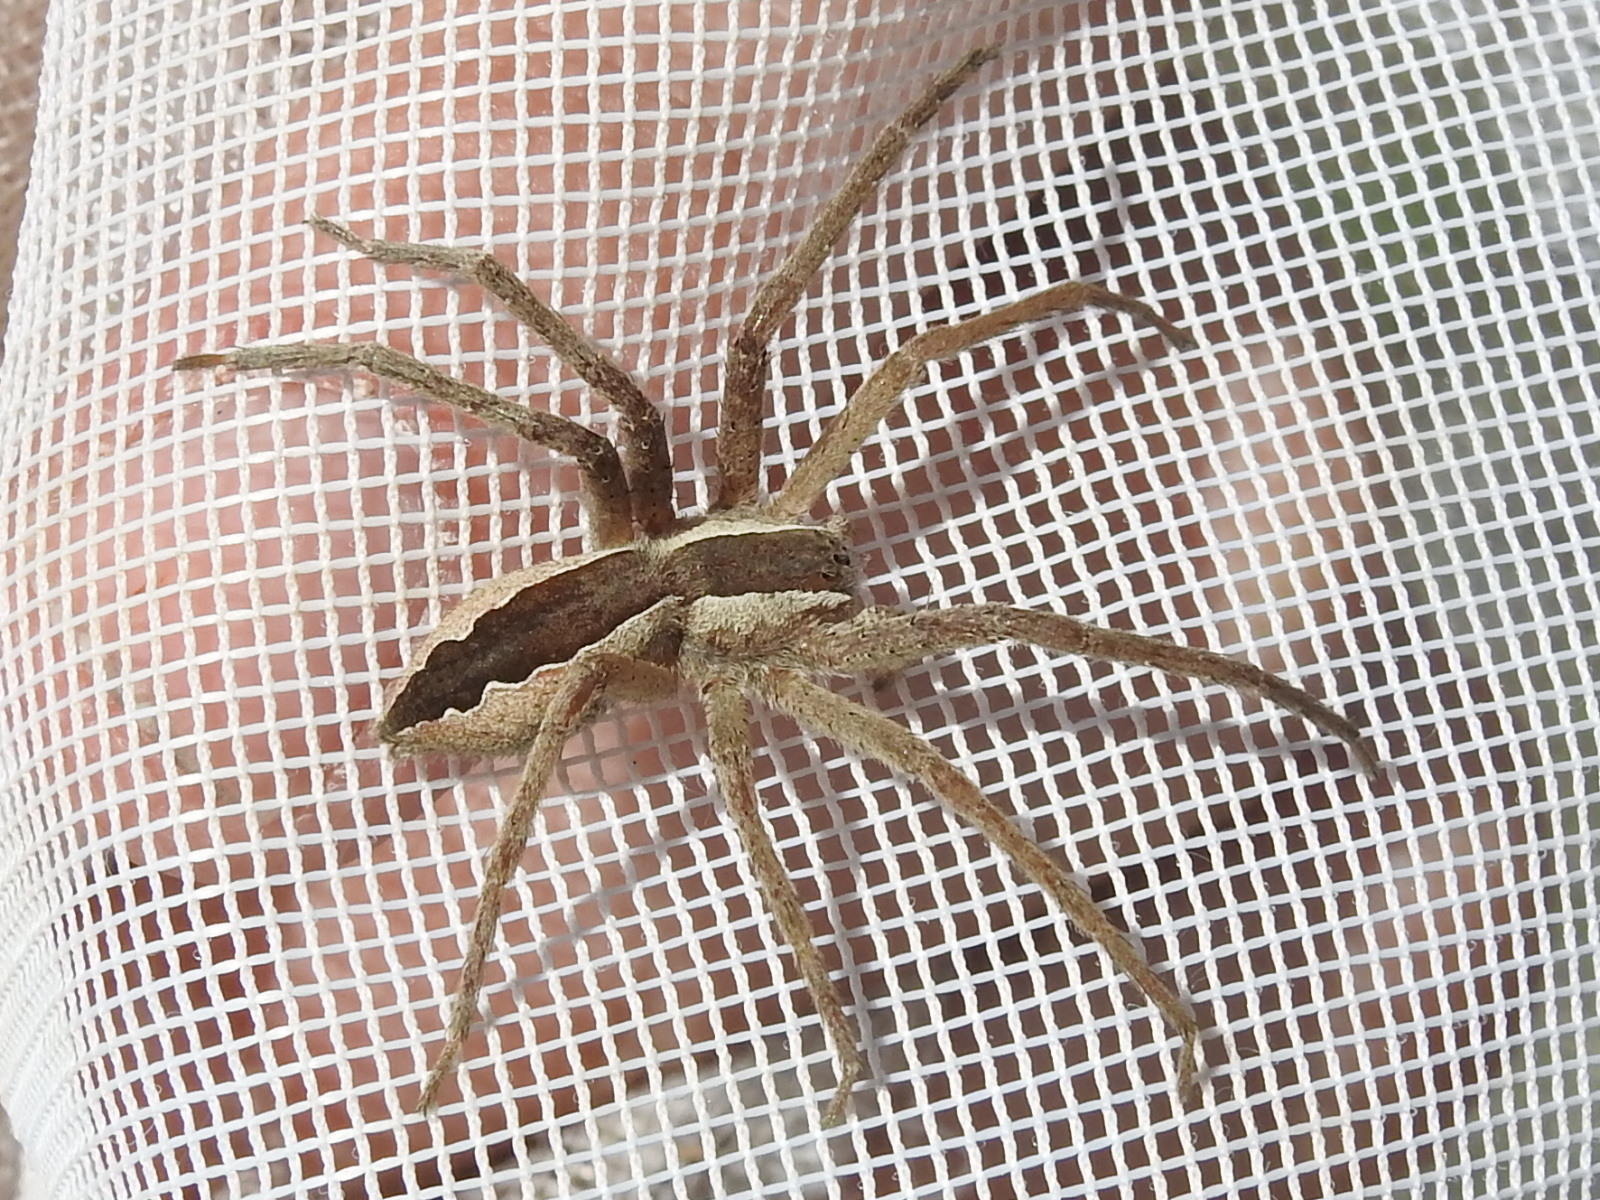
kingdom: Animalia
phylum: Arthropoda
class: Arachnida
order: Araneae
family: Pisauridae
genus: Pisaurina
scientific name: Pisaurina mira
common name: American nursery web spider
